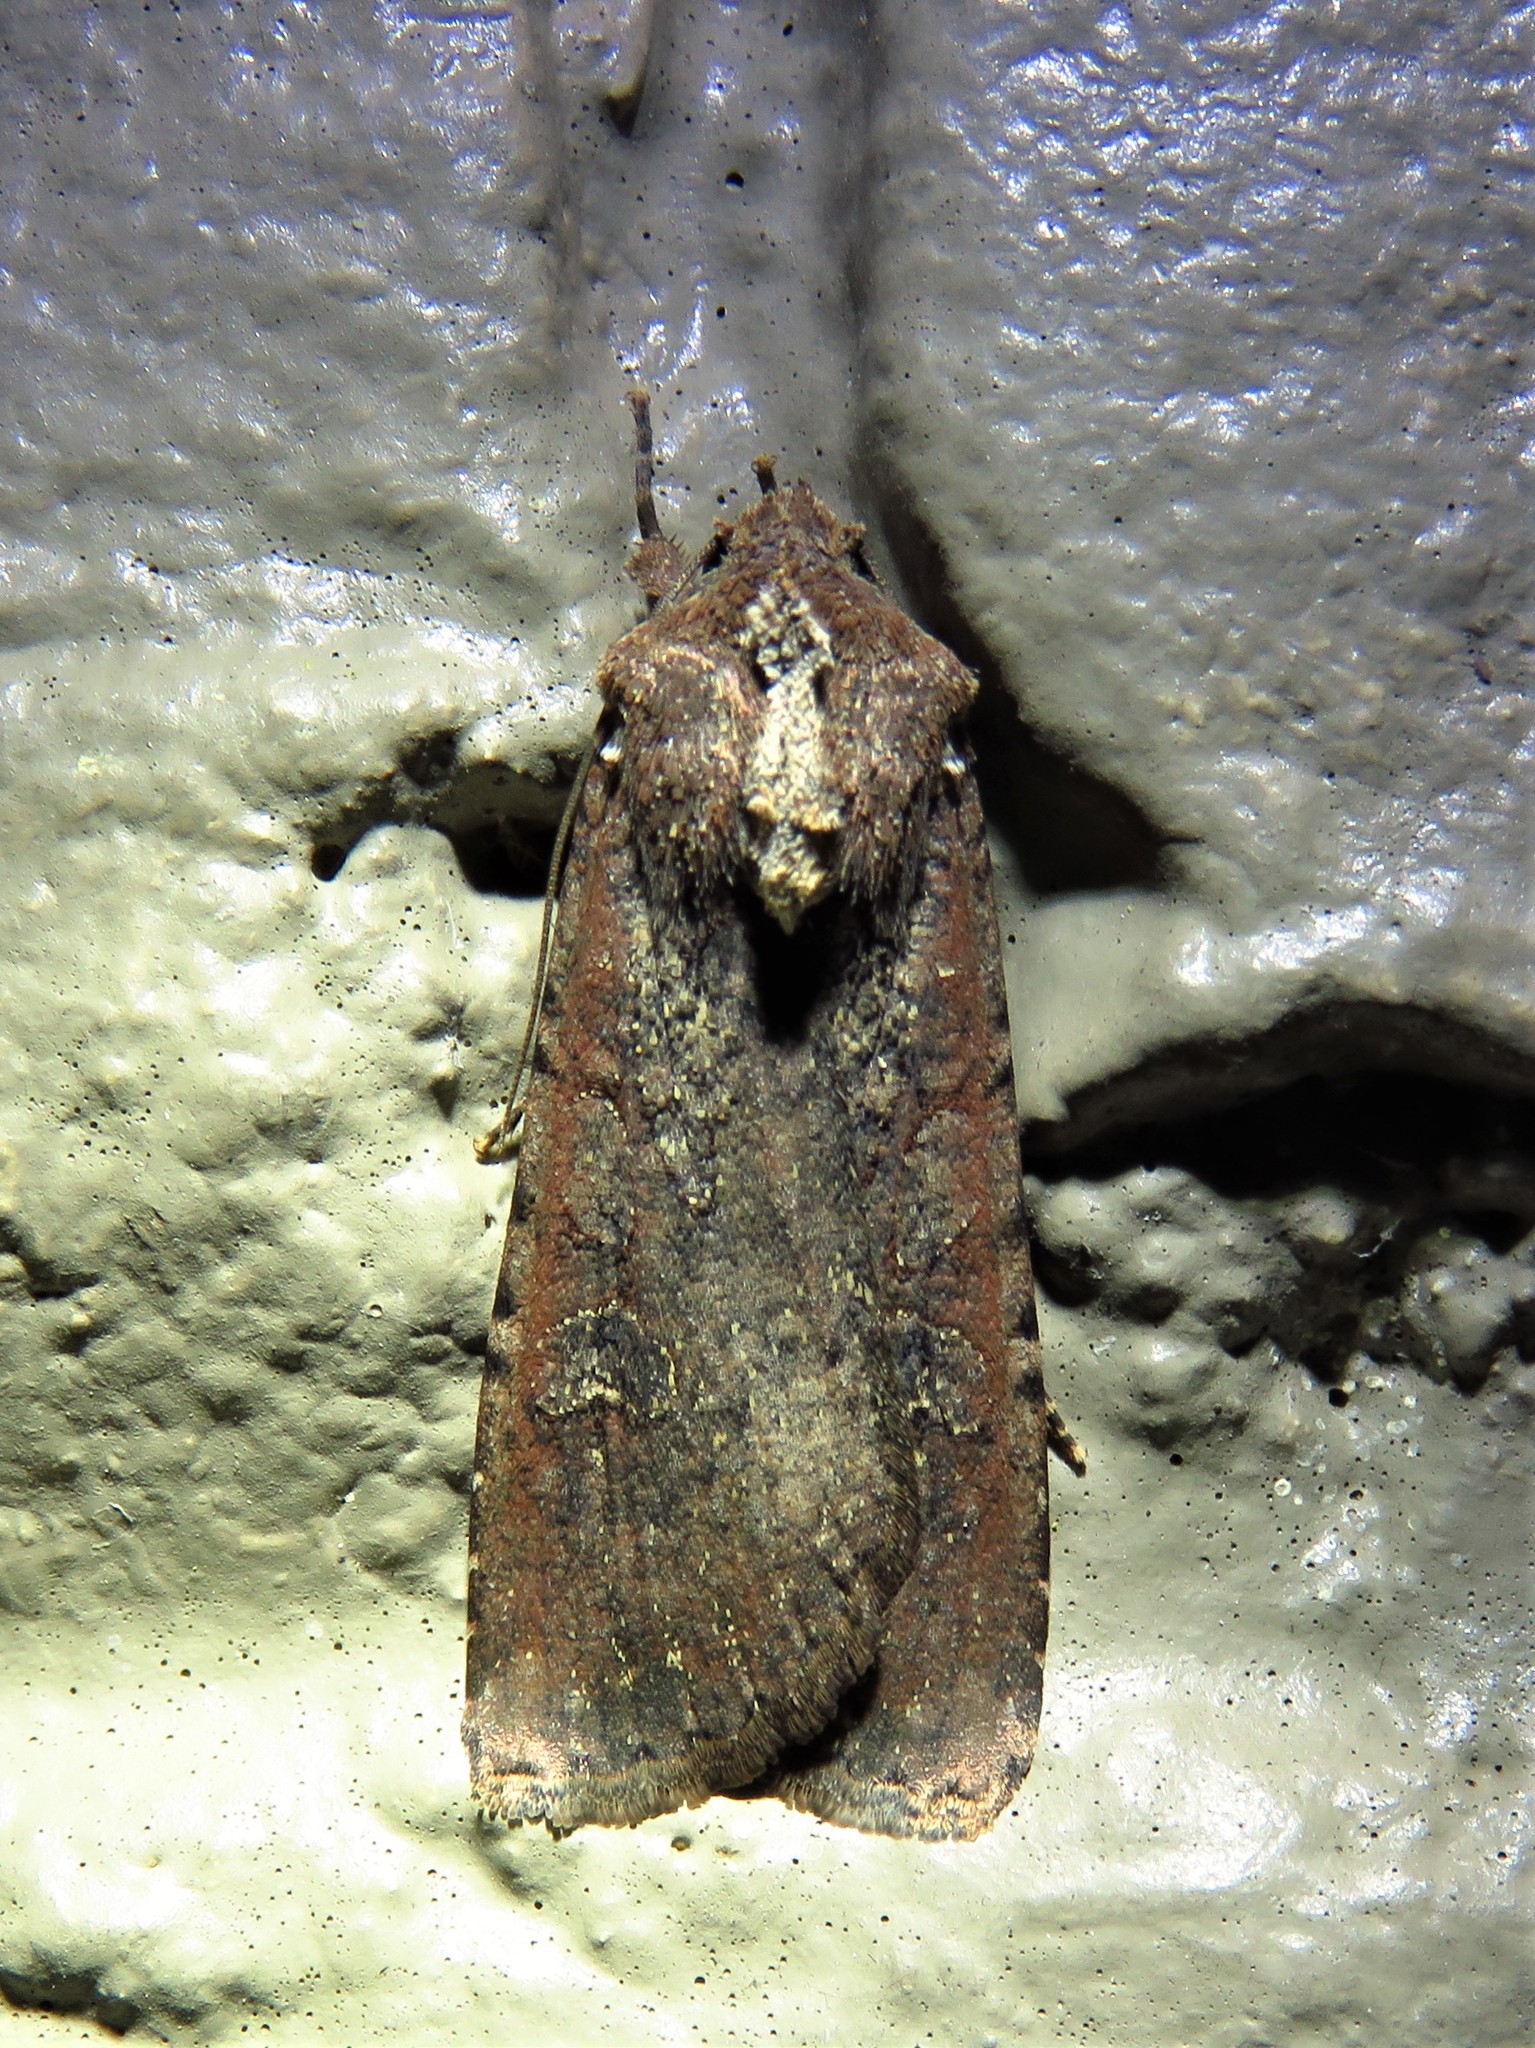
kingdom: Animalia
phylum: Arthropoda
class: Insecta
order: Lepidoptera
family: Noctuidae
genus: Peridroma
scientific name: Peridroma saucia
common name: Pearly underwing
